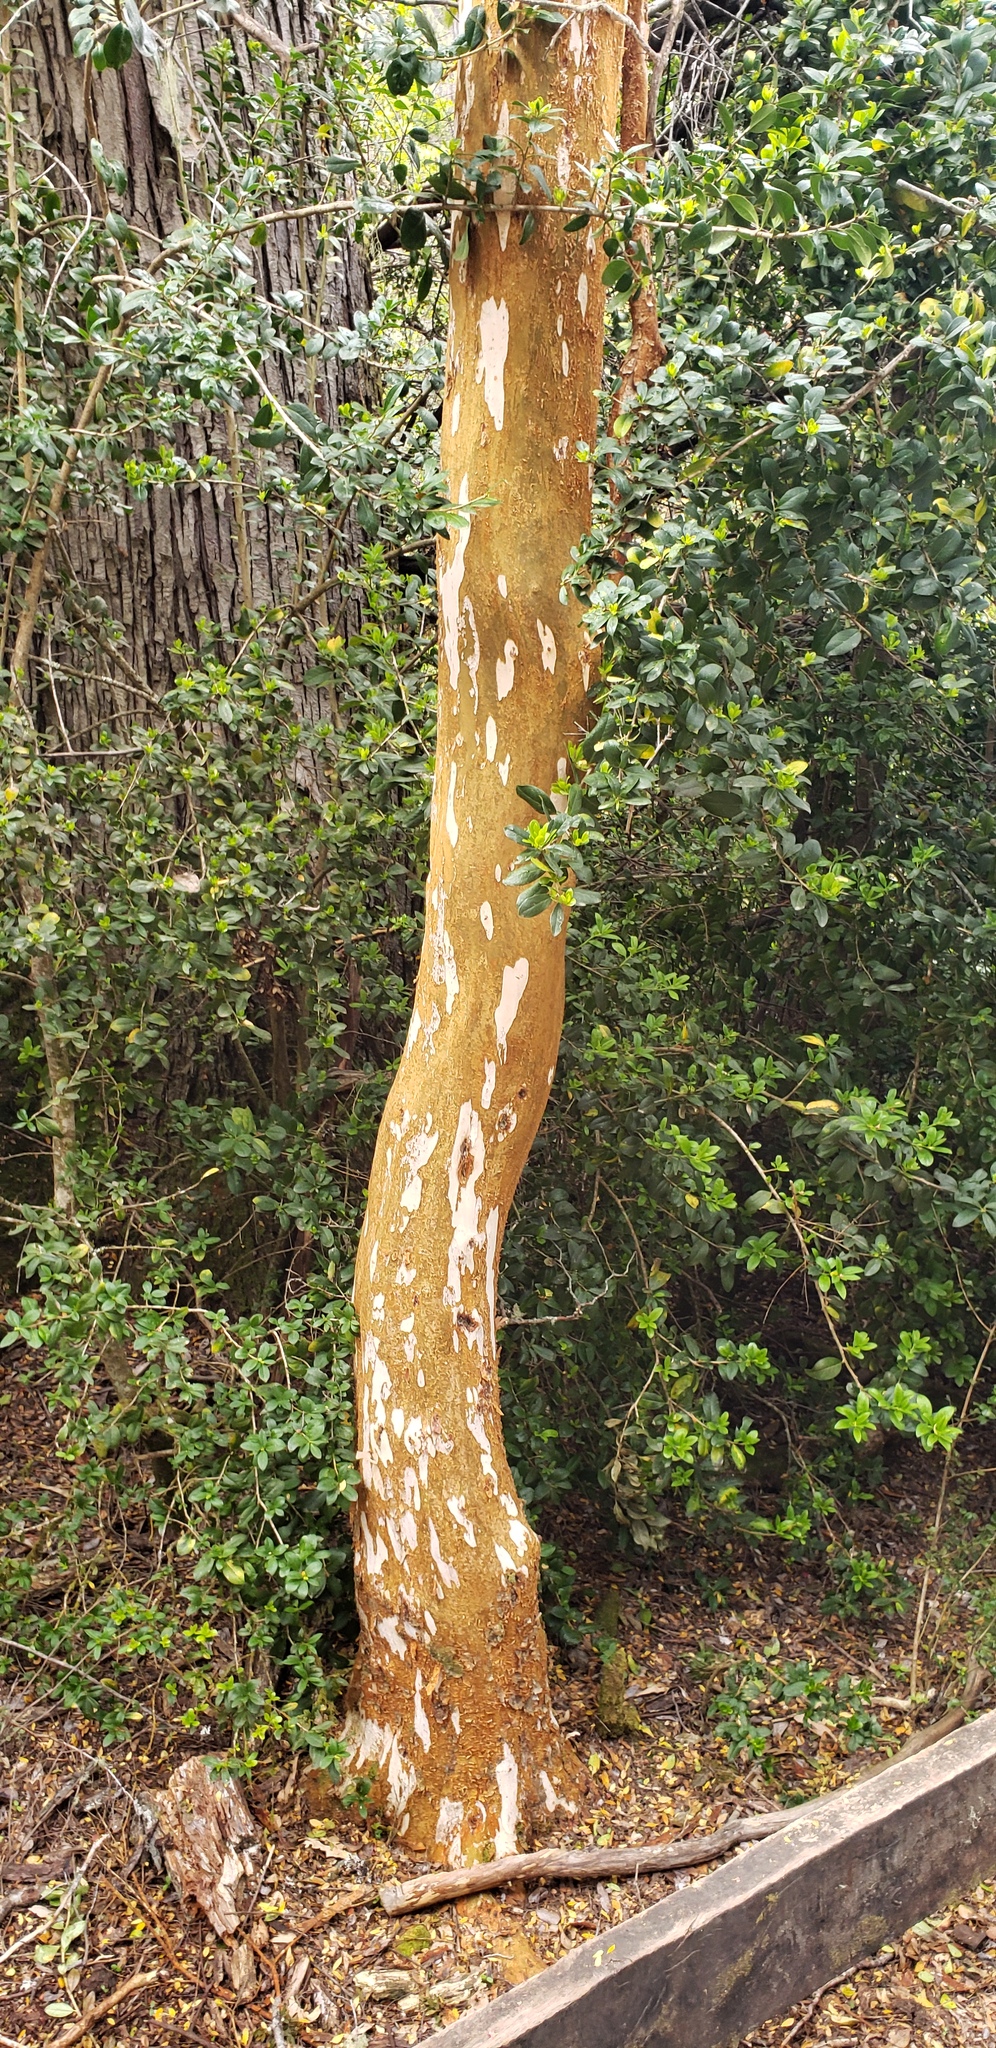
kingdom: Plantae
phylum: Tracheophyta
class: Magnoliopsida
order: Myrtales
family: Myrtaceae
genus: Luma
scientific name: Luma apiculata
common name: Chilean myrtle
